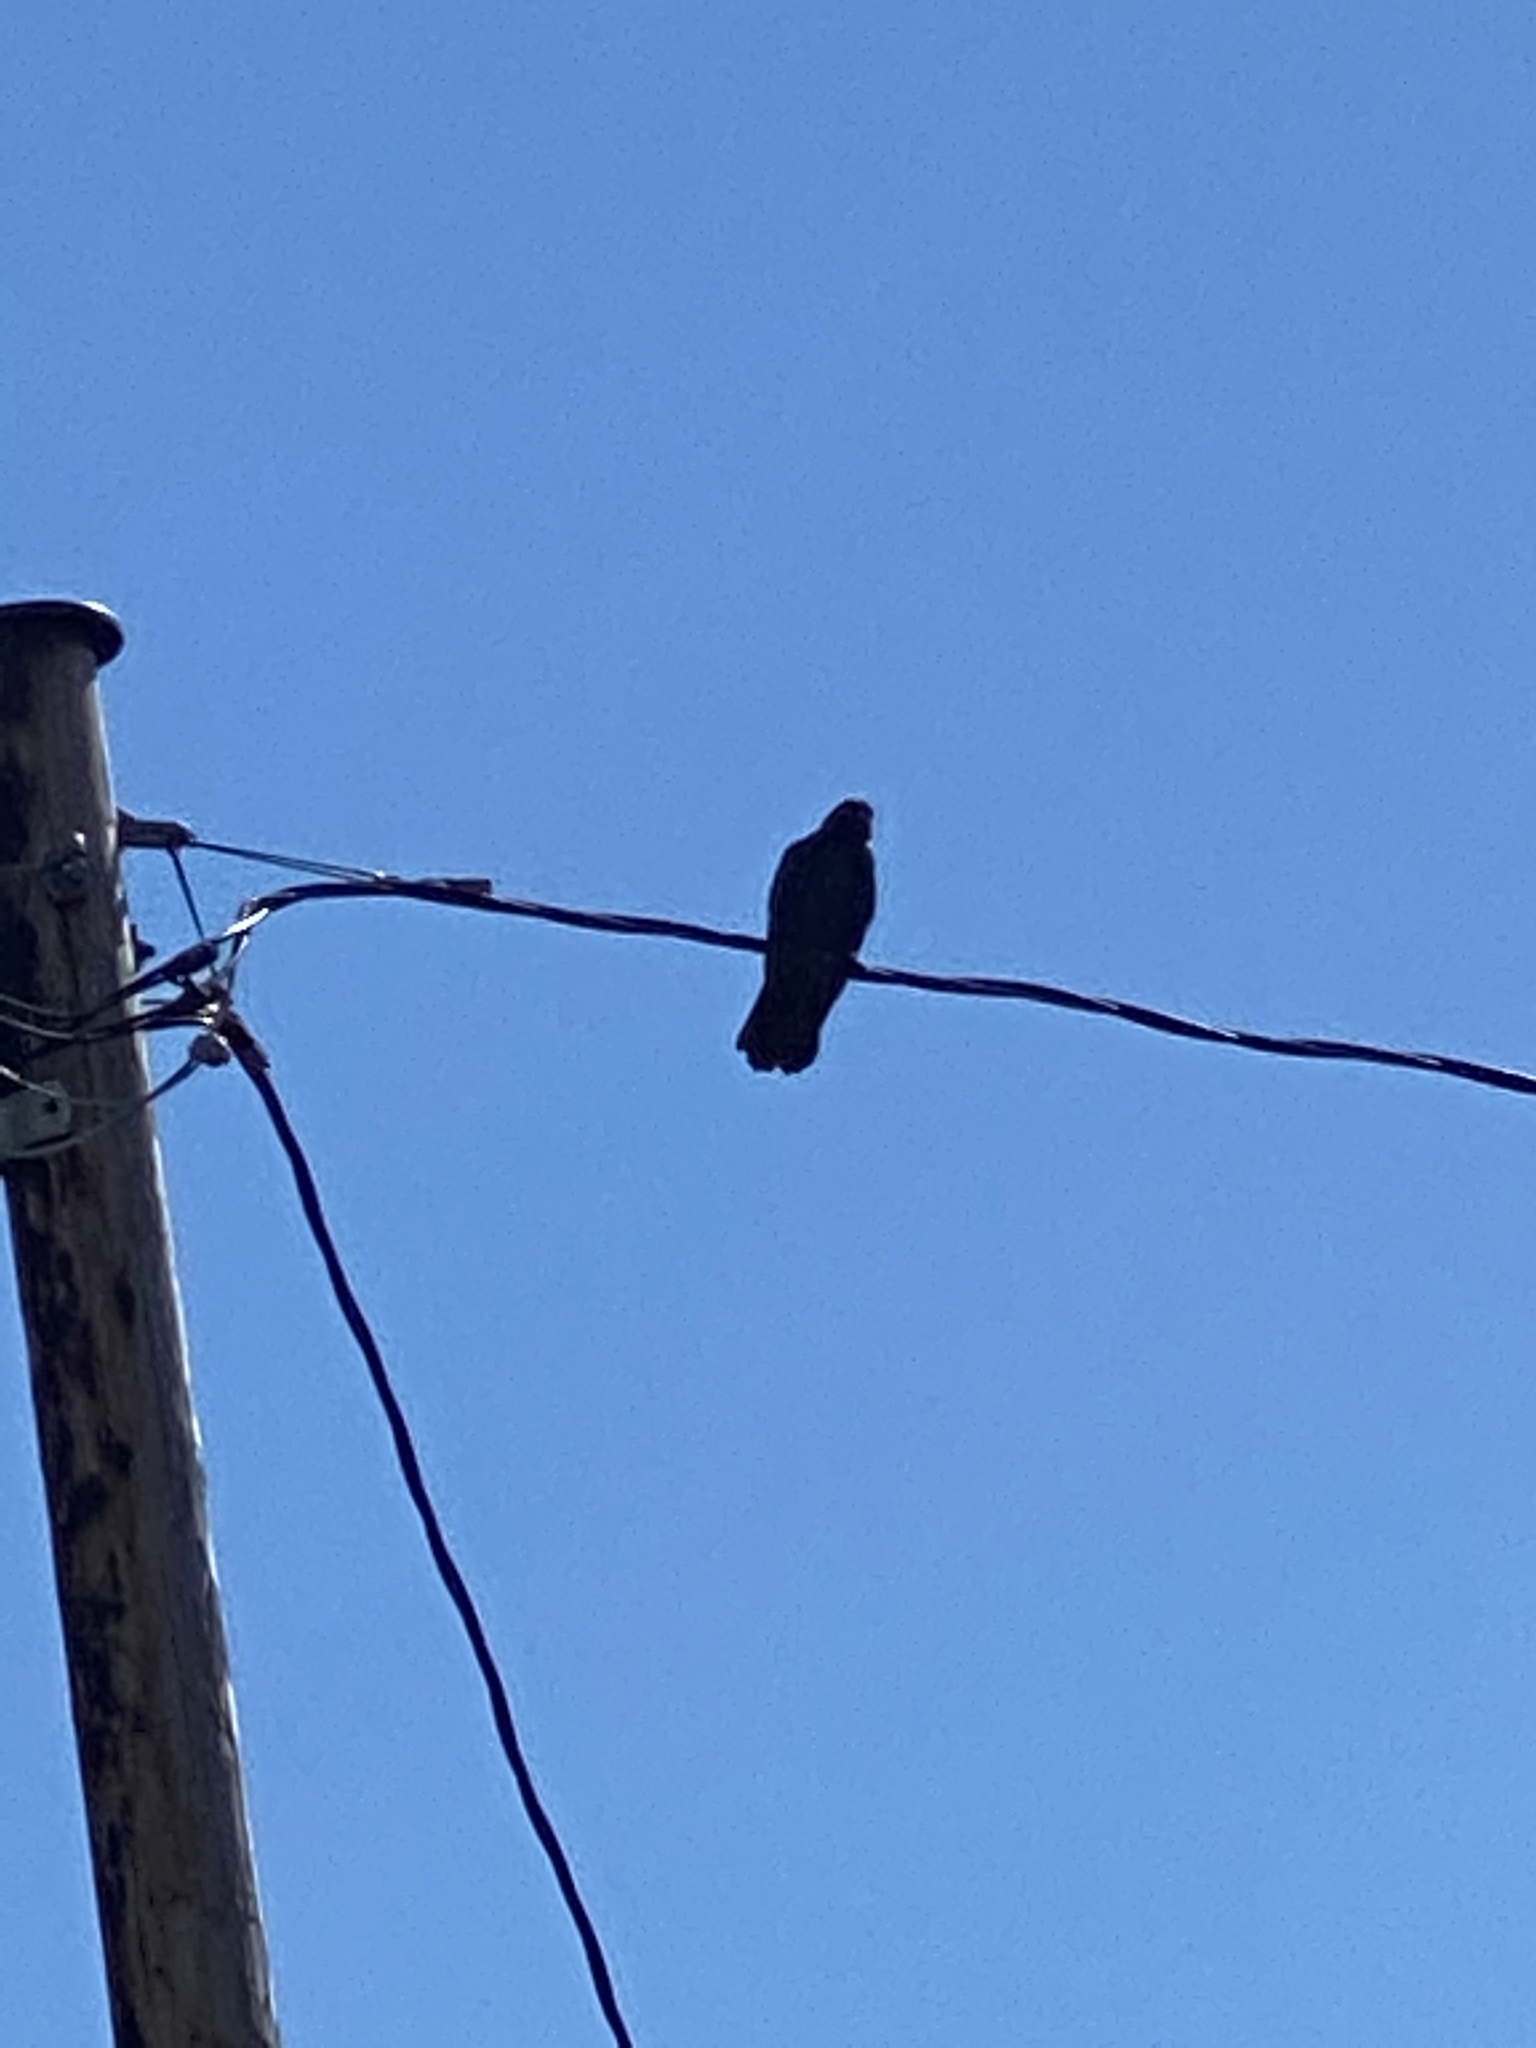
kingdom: Animalia
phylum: Chordata
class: Aves
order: Passeriformes
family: Corvidae
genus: Corvus
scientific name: Corvus brachyrhynchos
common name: American crow
